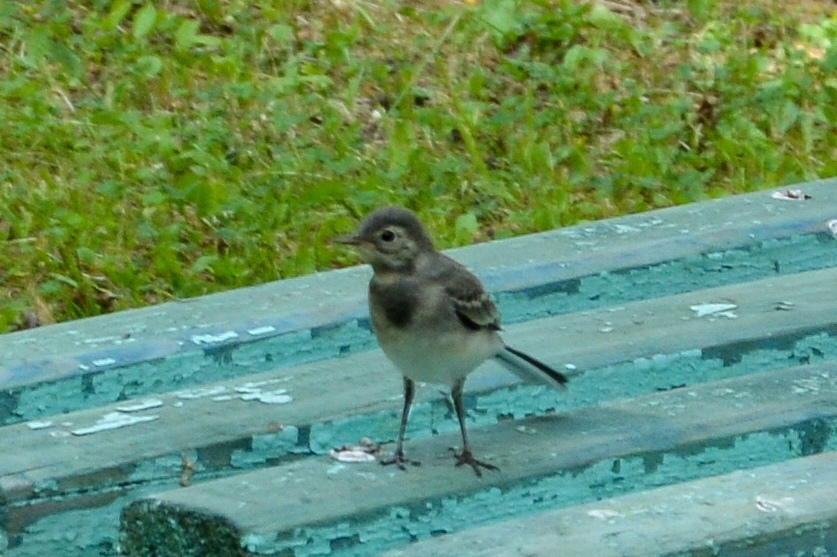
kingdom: Animalia
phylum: Chordata
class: Aves
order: Passeriformes
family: Motacillidae
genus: Motacilla
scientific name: Motacilla alba
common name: White wagtail
